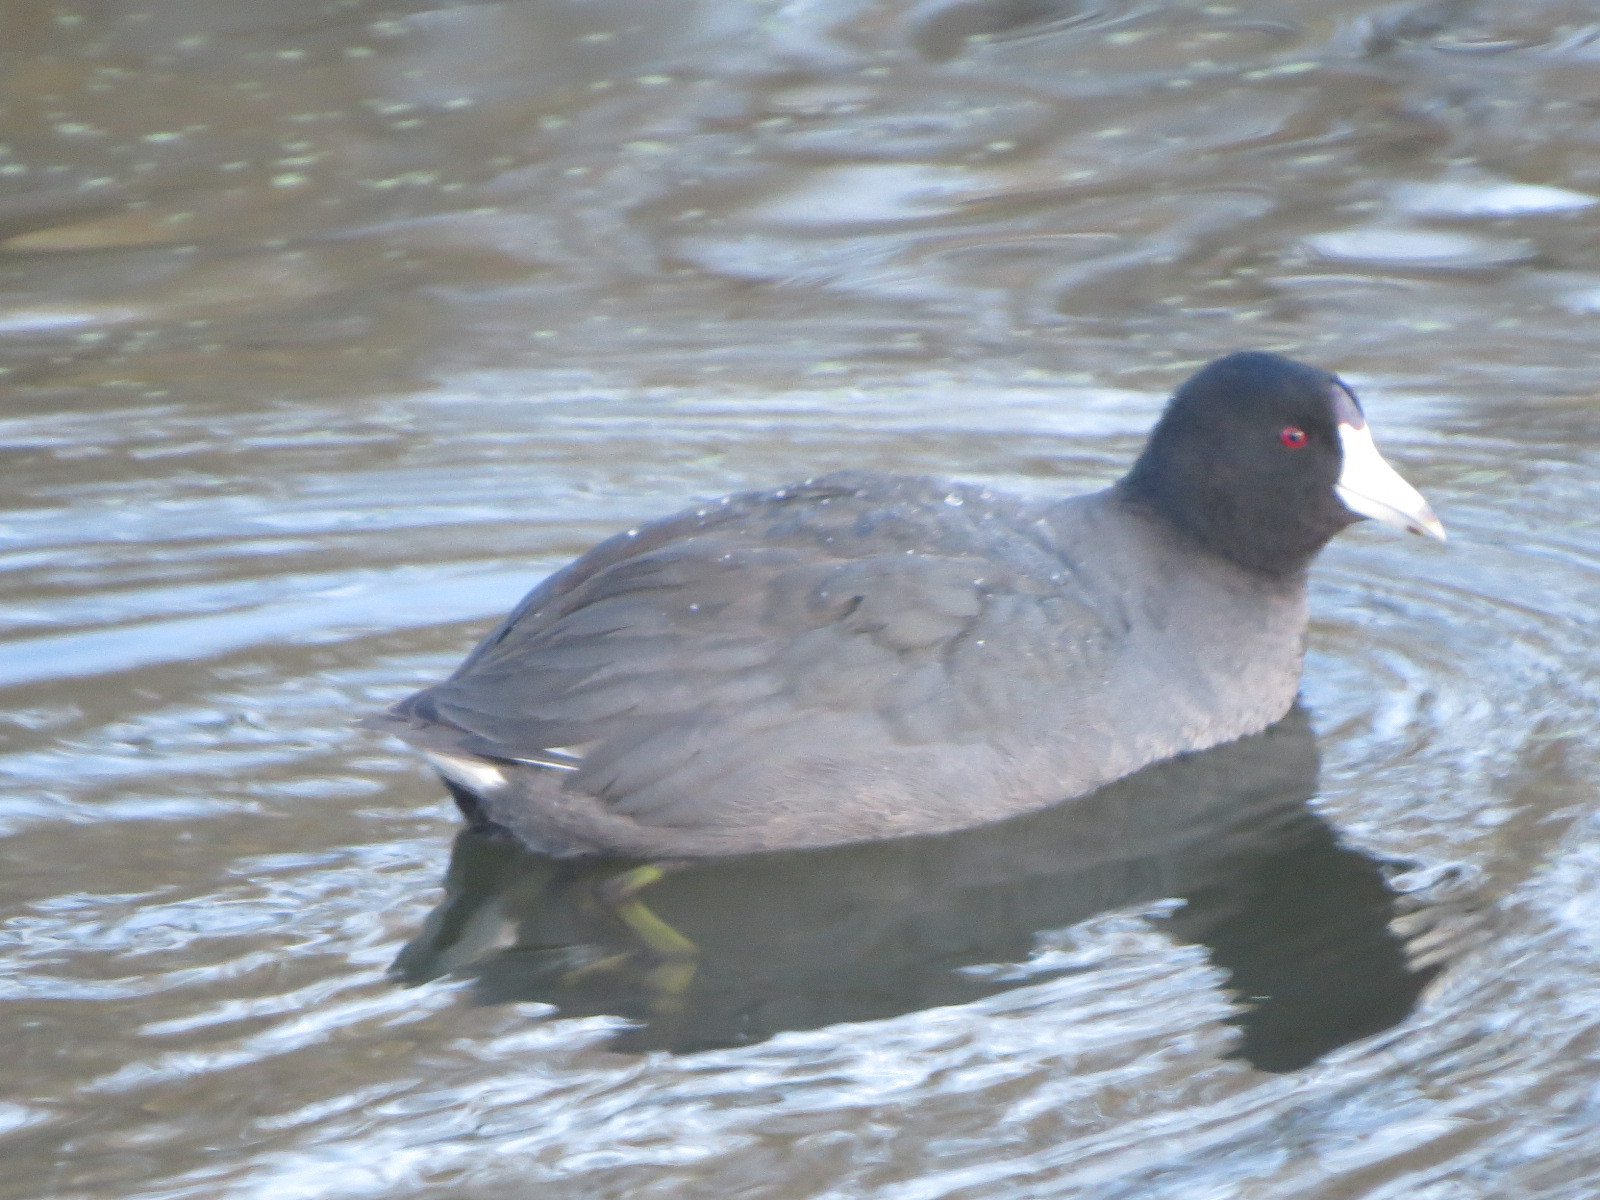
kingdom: Animalia
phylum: Chordata
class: Aves
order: Gruiformes
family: Rallidae
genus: Fulica
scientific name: Fulica americana
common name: American coot
